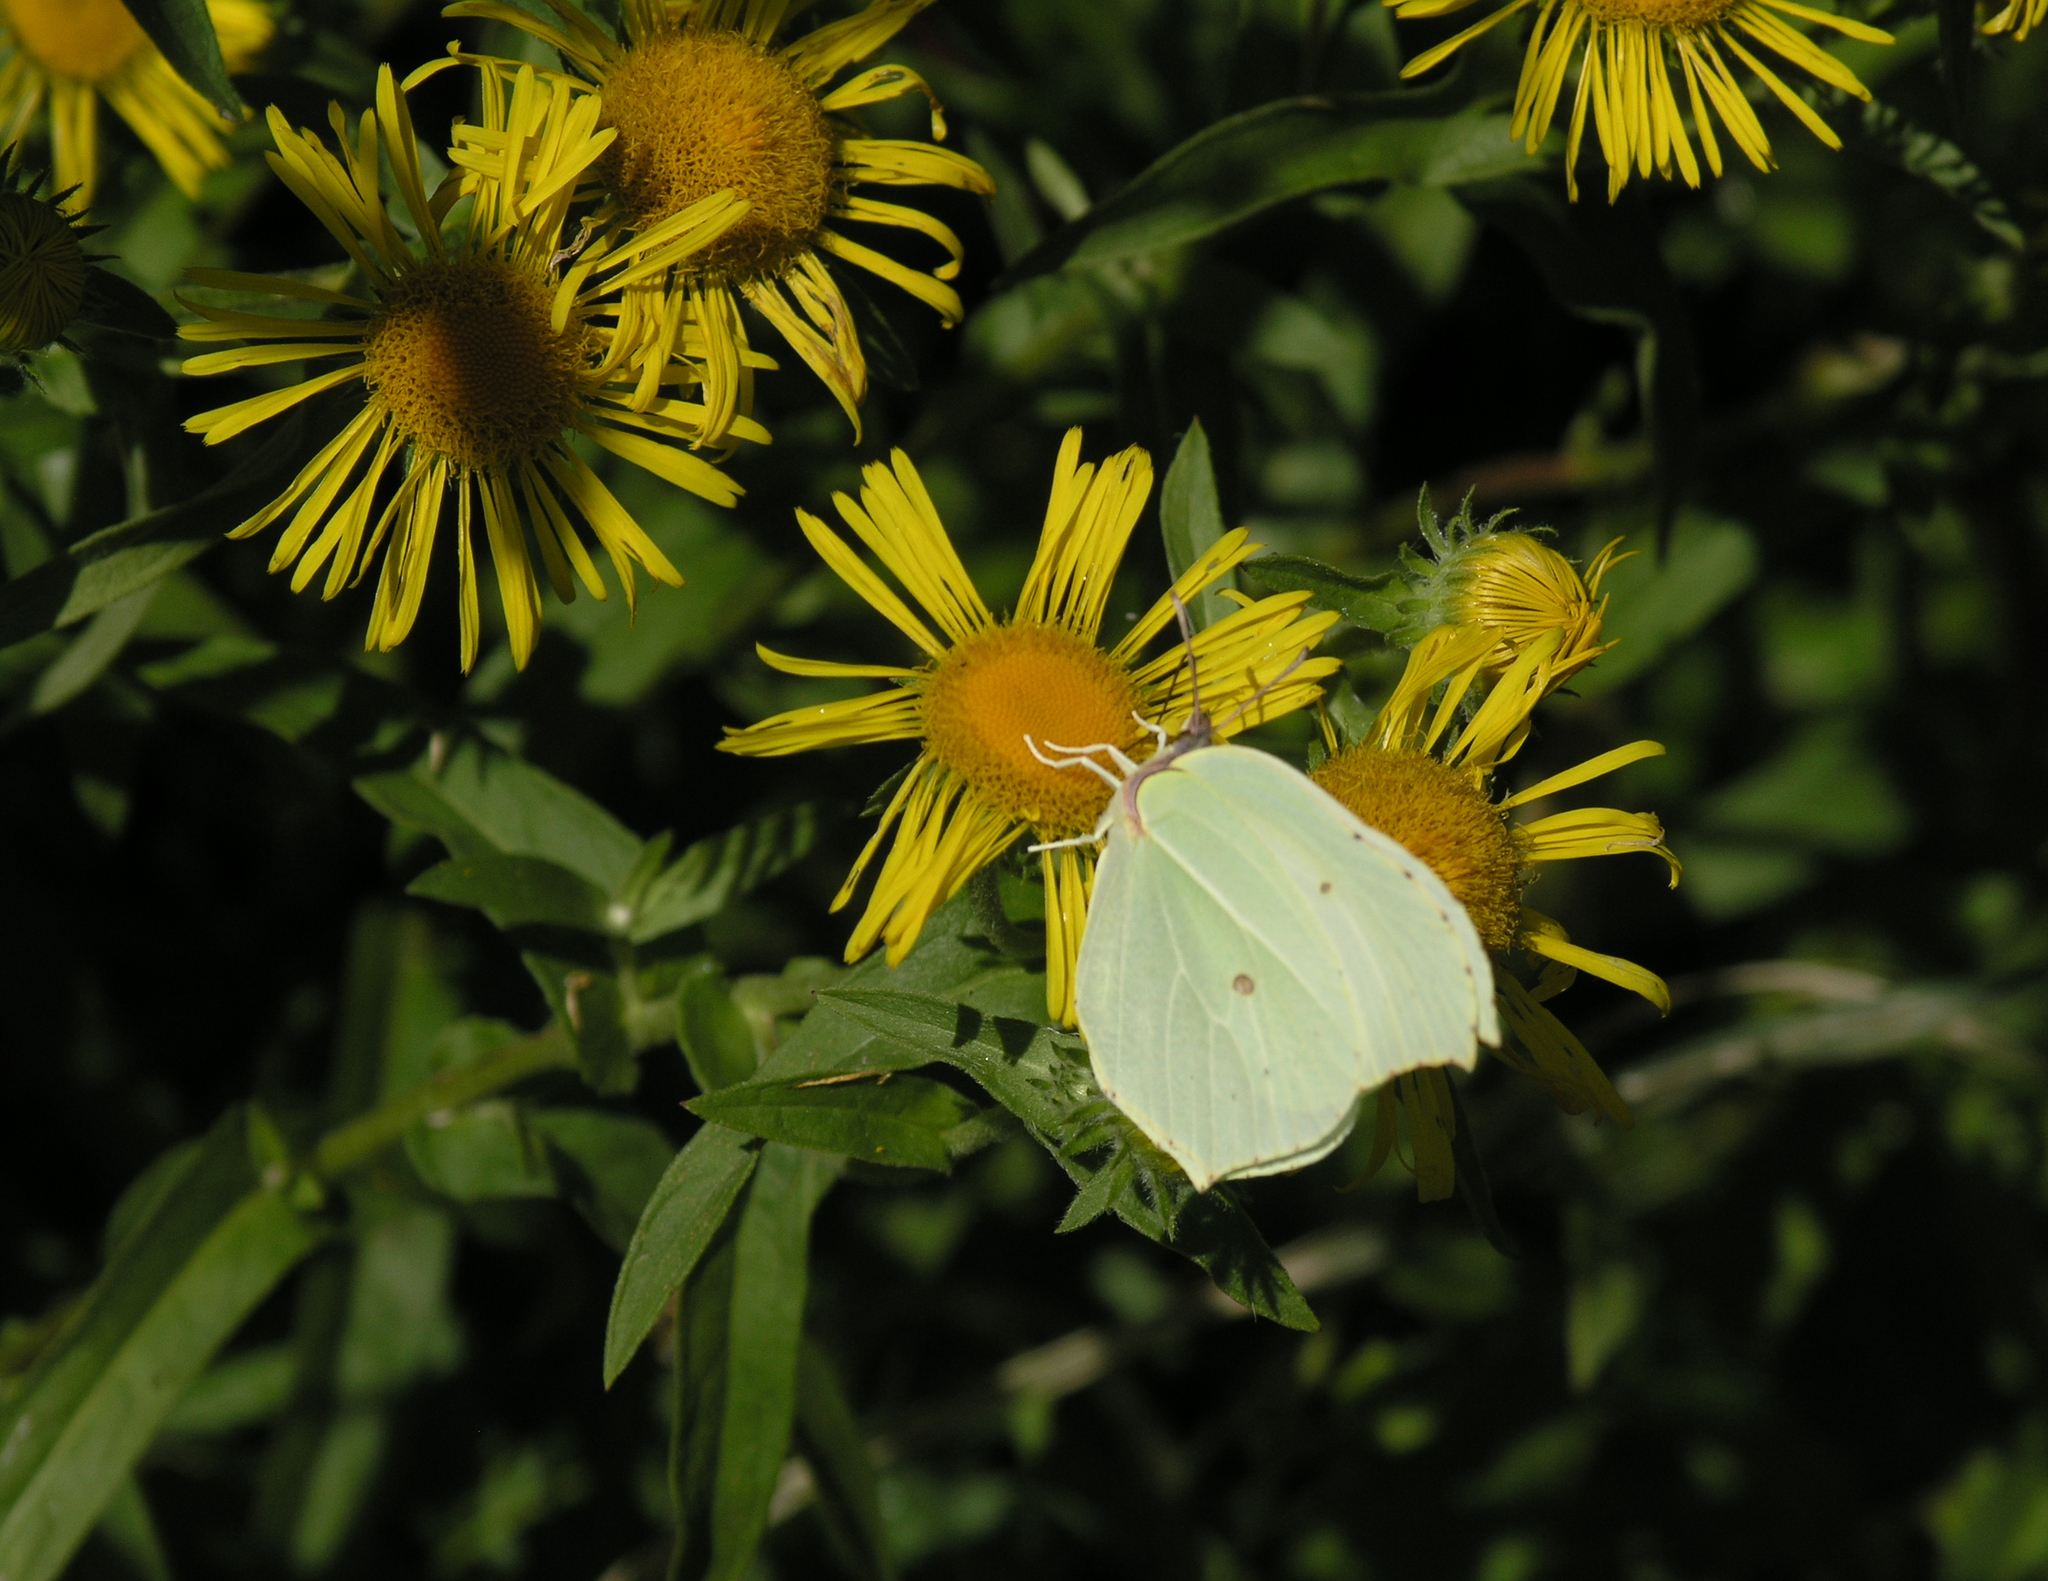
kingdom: Animalia
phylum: Arthropoda
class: Insecta
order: Lepidoptera
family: Pieridae
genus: Gonepteryx
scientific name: Gonepteryx rhamni
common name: Brimstone
